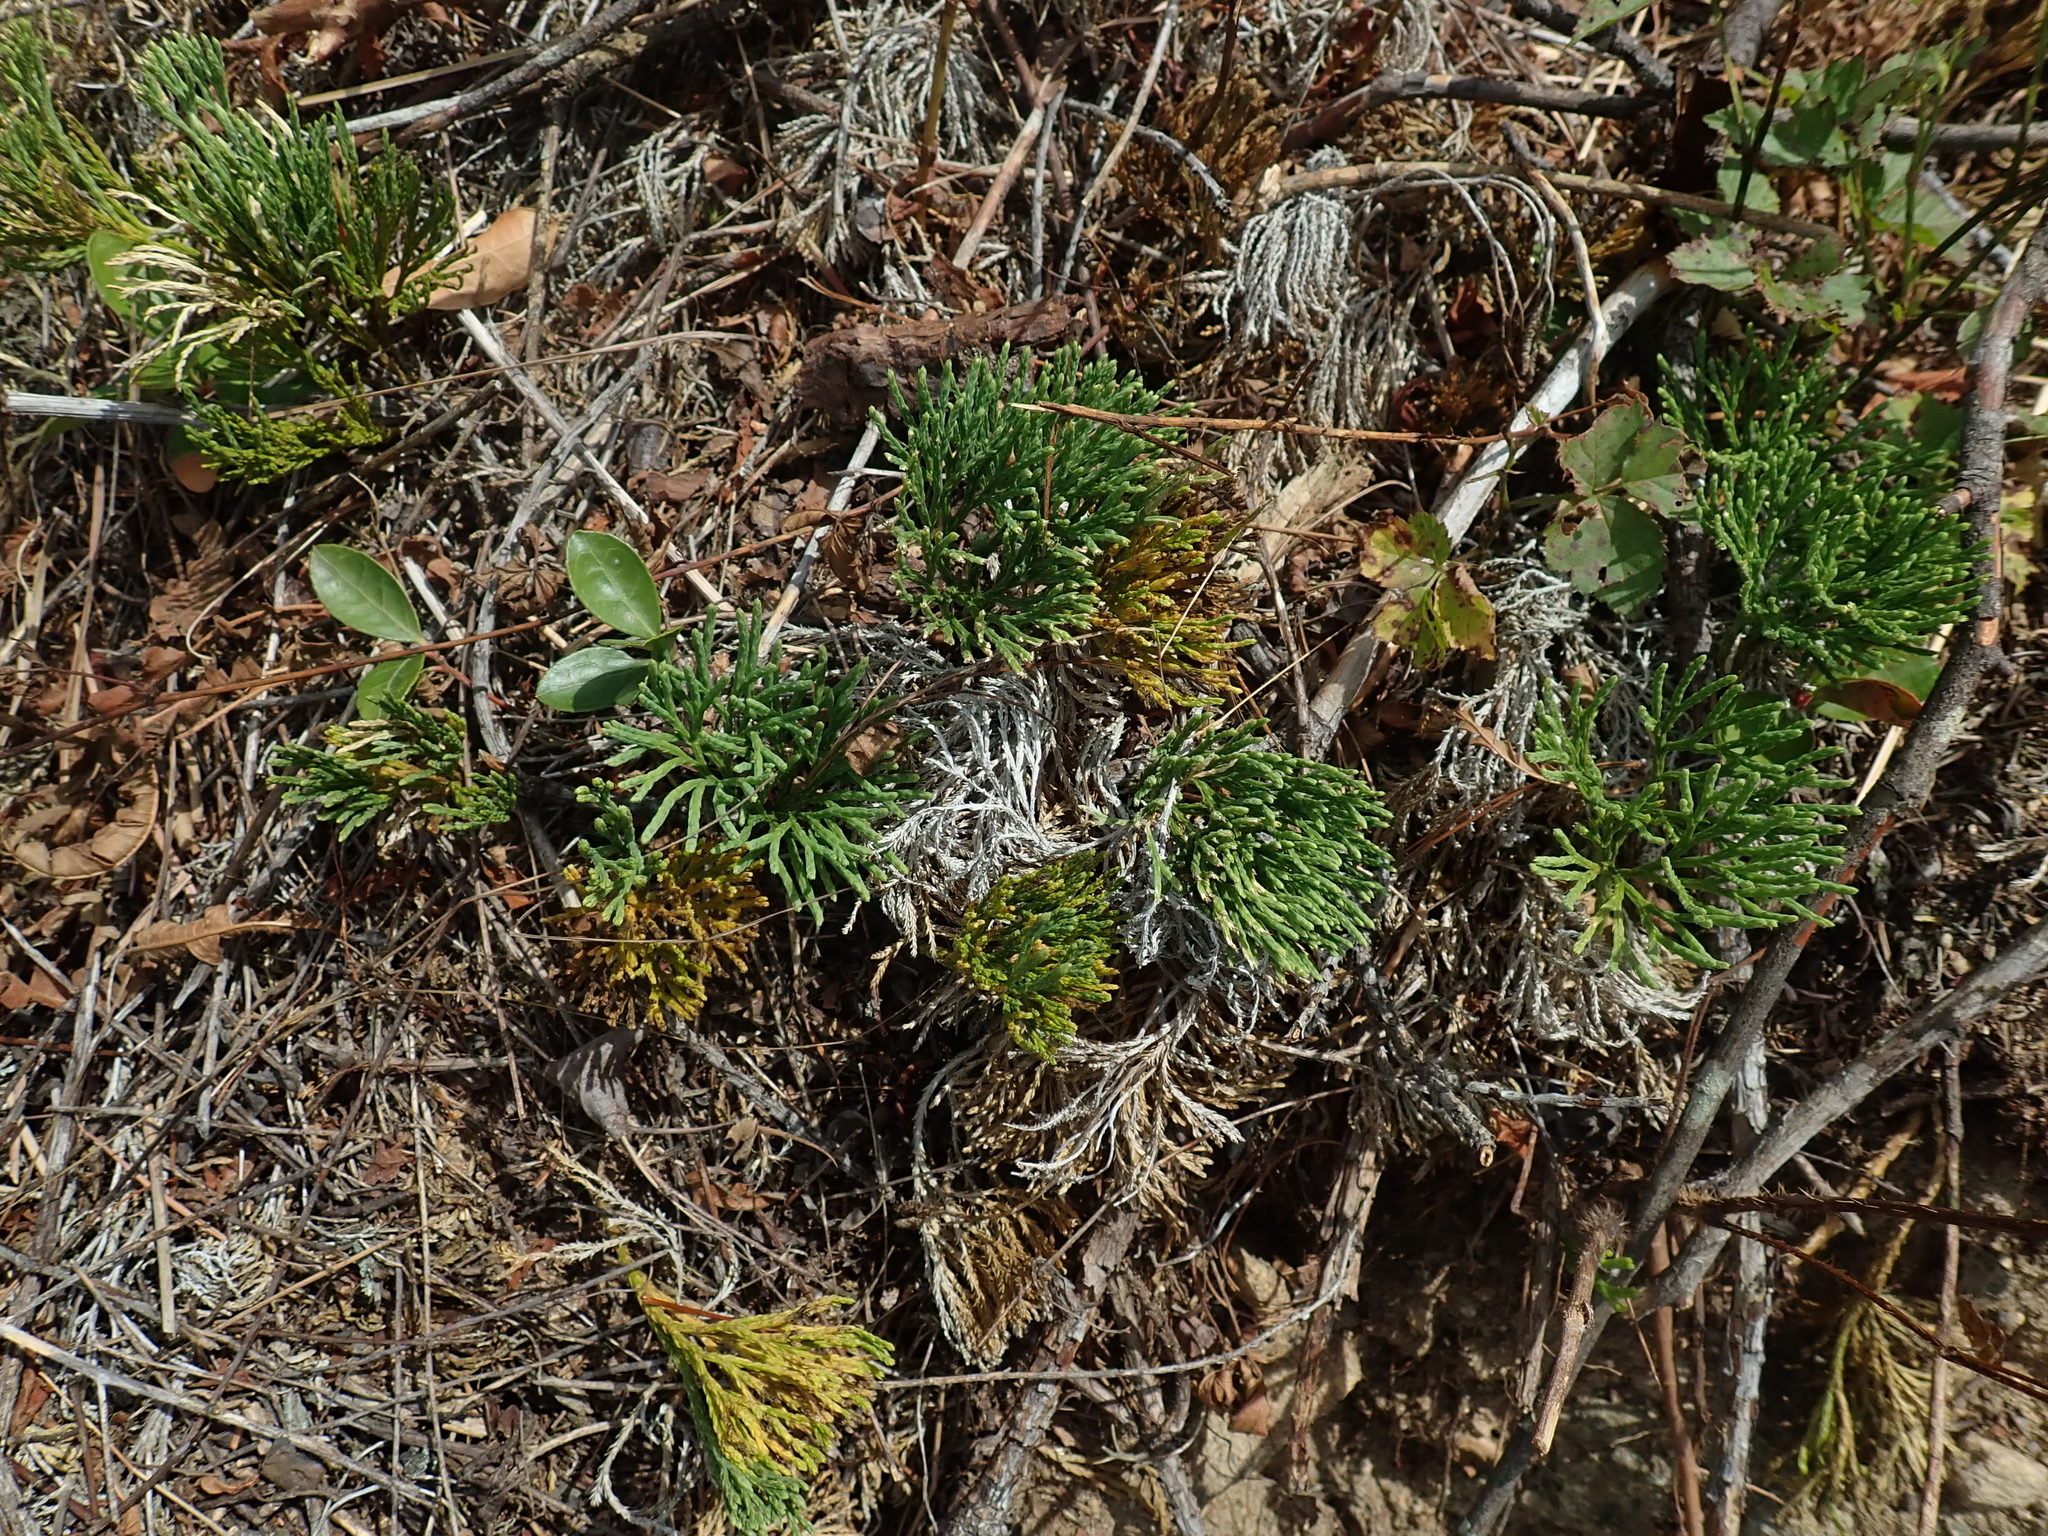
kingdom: Plantae
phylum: Tracheophyta
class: Lycopodiopsida
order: Lycopodiales
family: Lycopodiaceae
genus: Diphasiastrum
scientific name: Diphasiastrum tristachyum
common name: Blue ground-cedar
